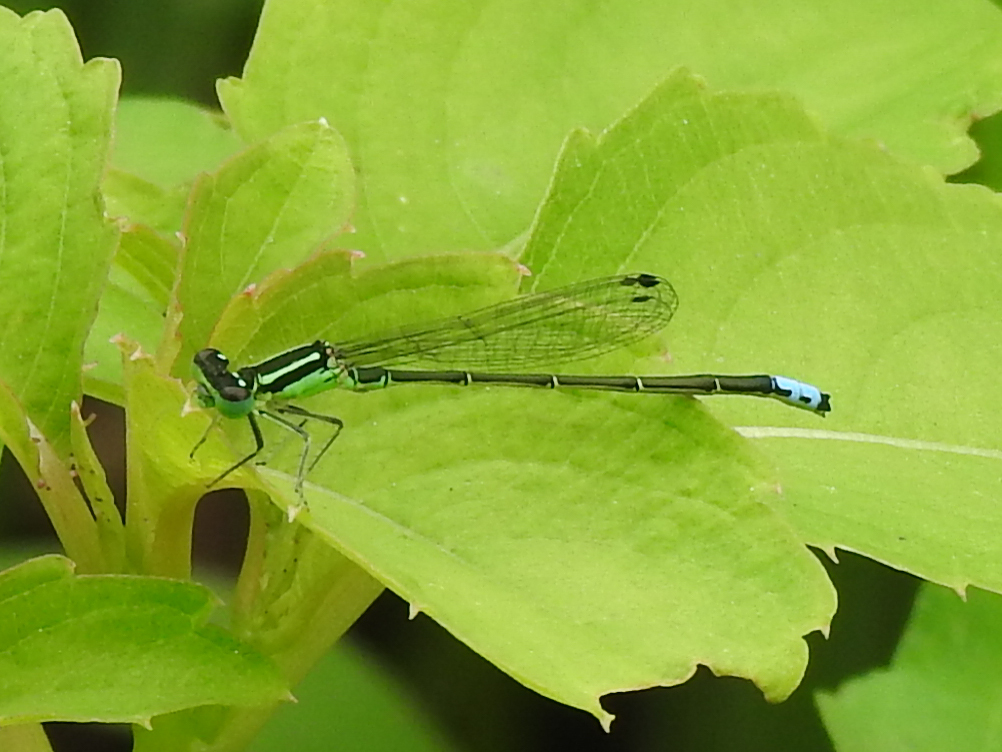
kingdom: Animalia
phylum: Arthropoda
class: Insecta
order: Odonata
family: Coenagrionidae
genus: Ischnura
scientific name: Ischnura verticalis
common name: Eastern forktail
